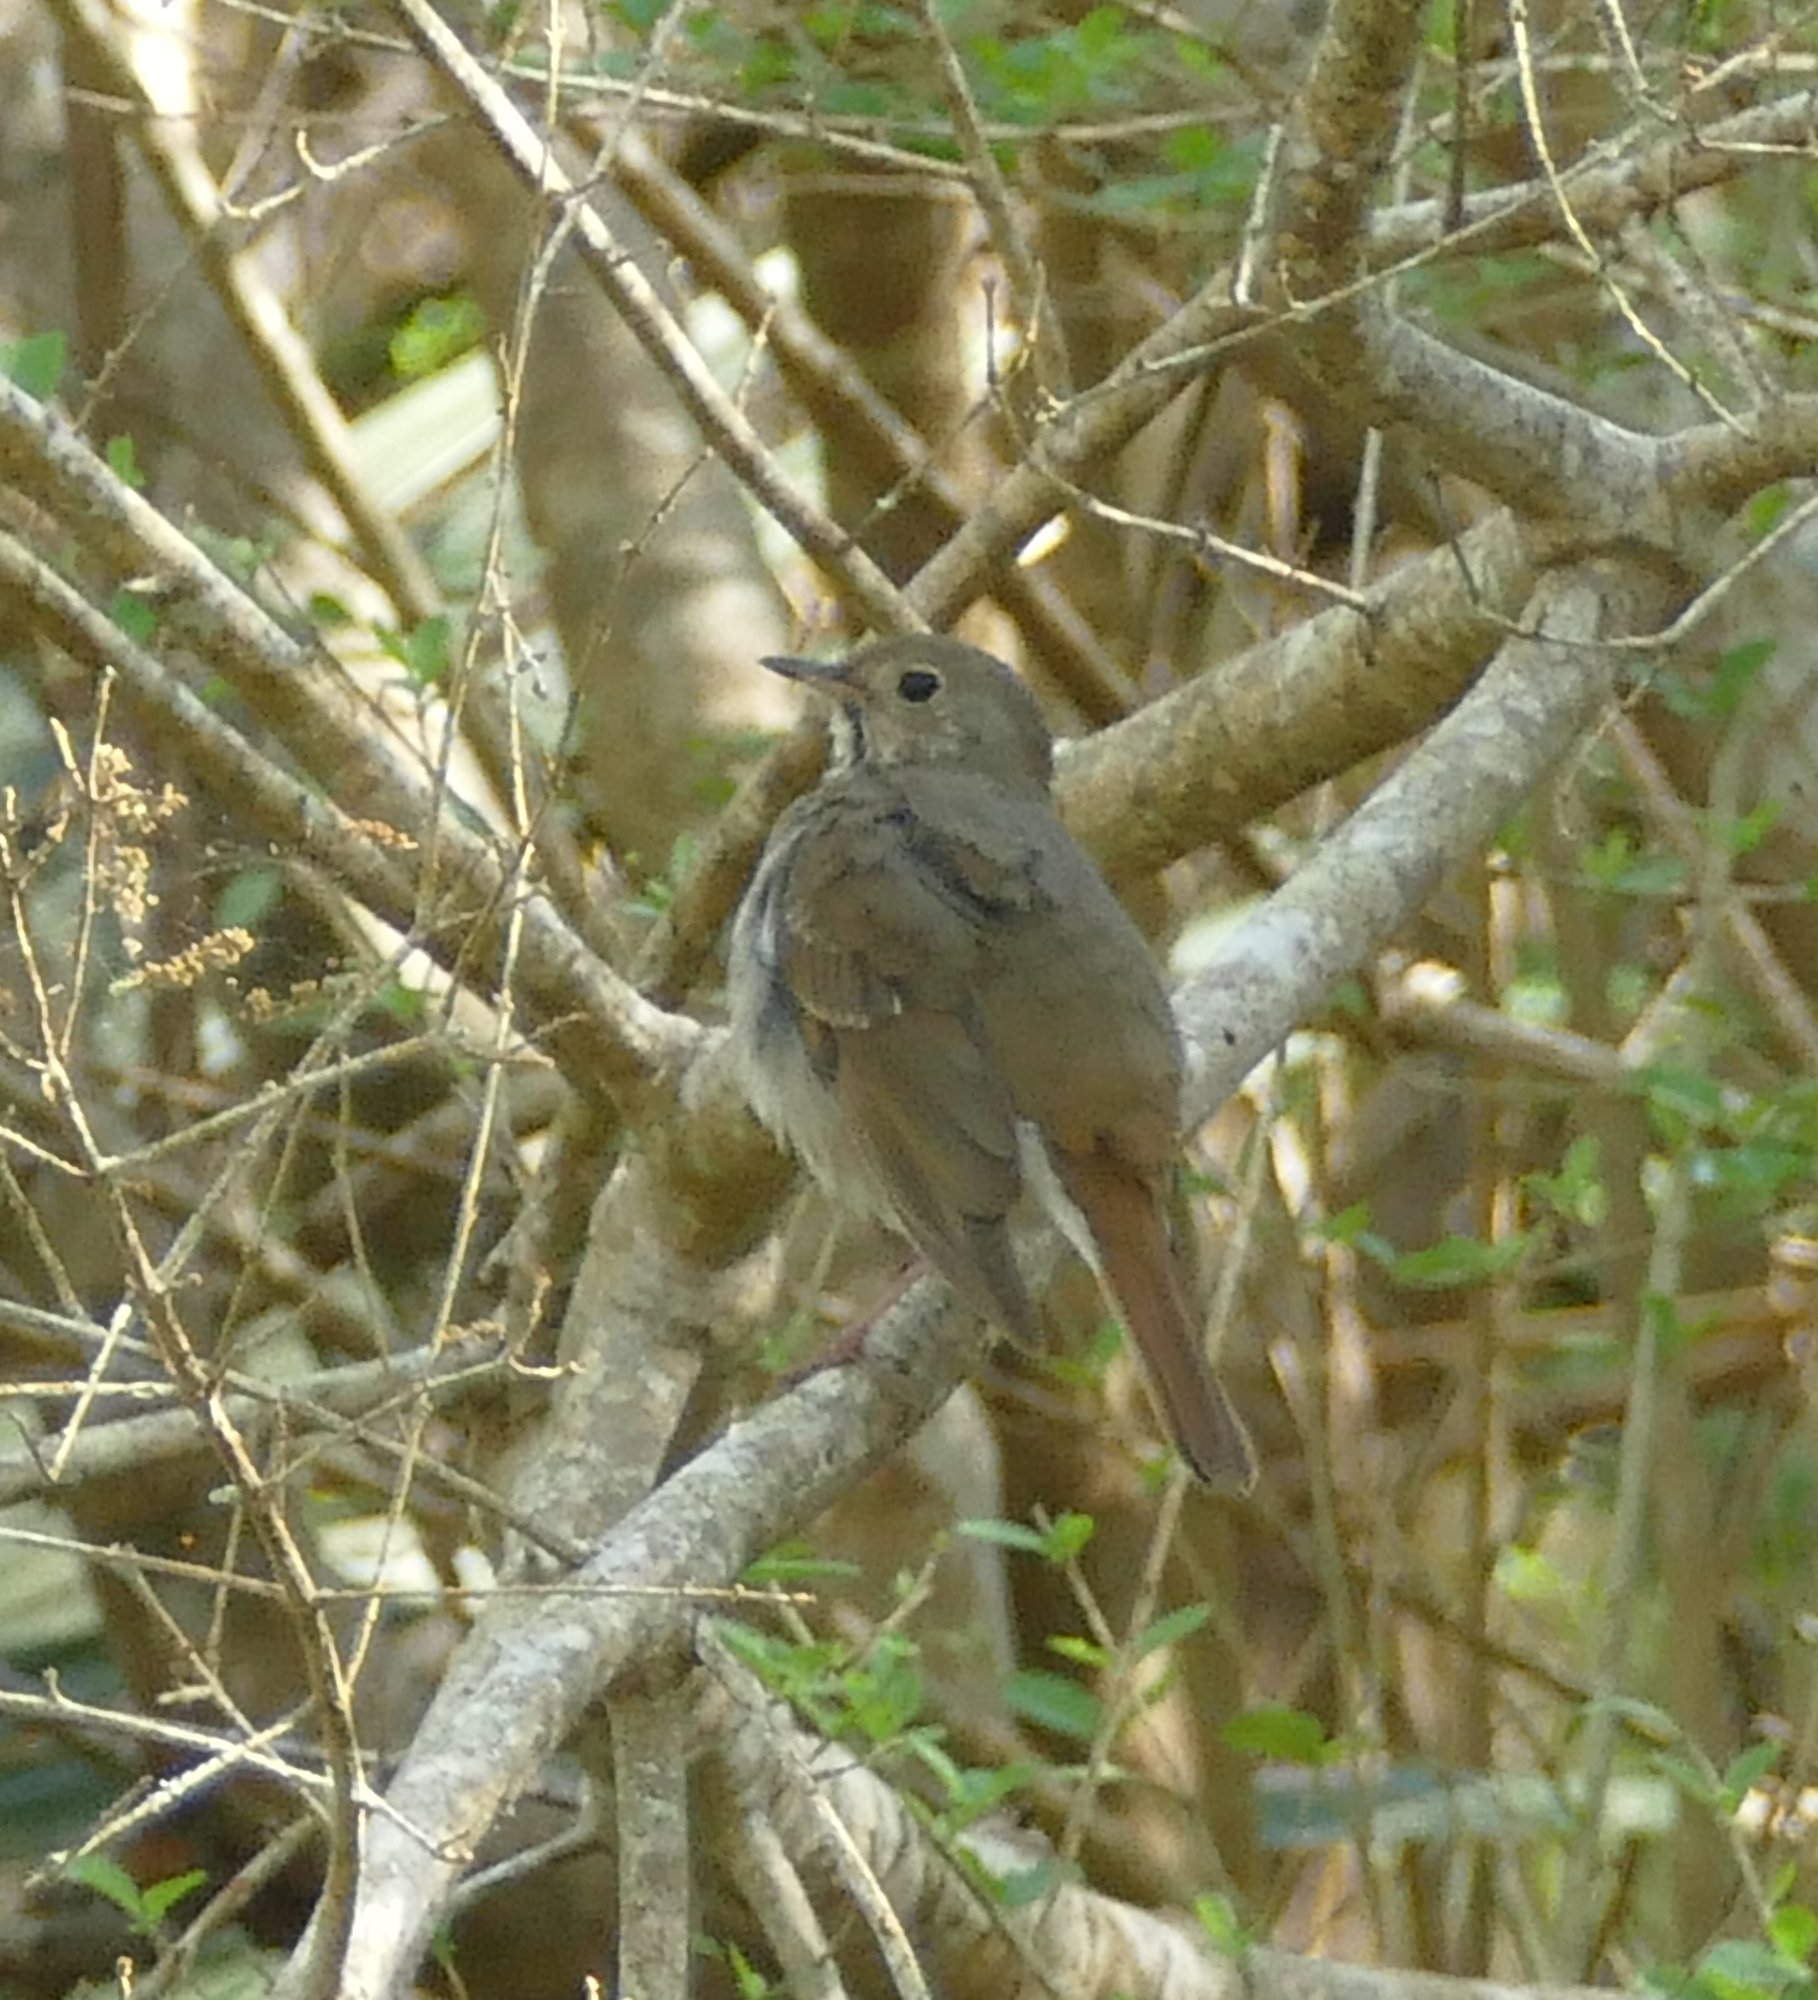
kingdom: Animalia
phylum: Chordata
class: Aves
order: Passeriformes
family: Turdidae
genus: Catharus
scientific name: Catharus guttatus
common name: Hermit thrush
